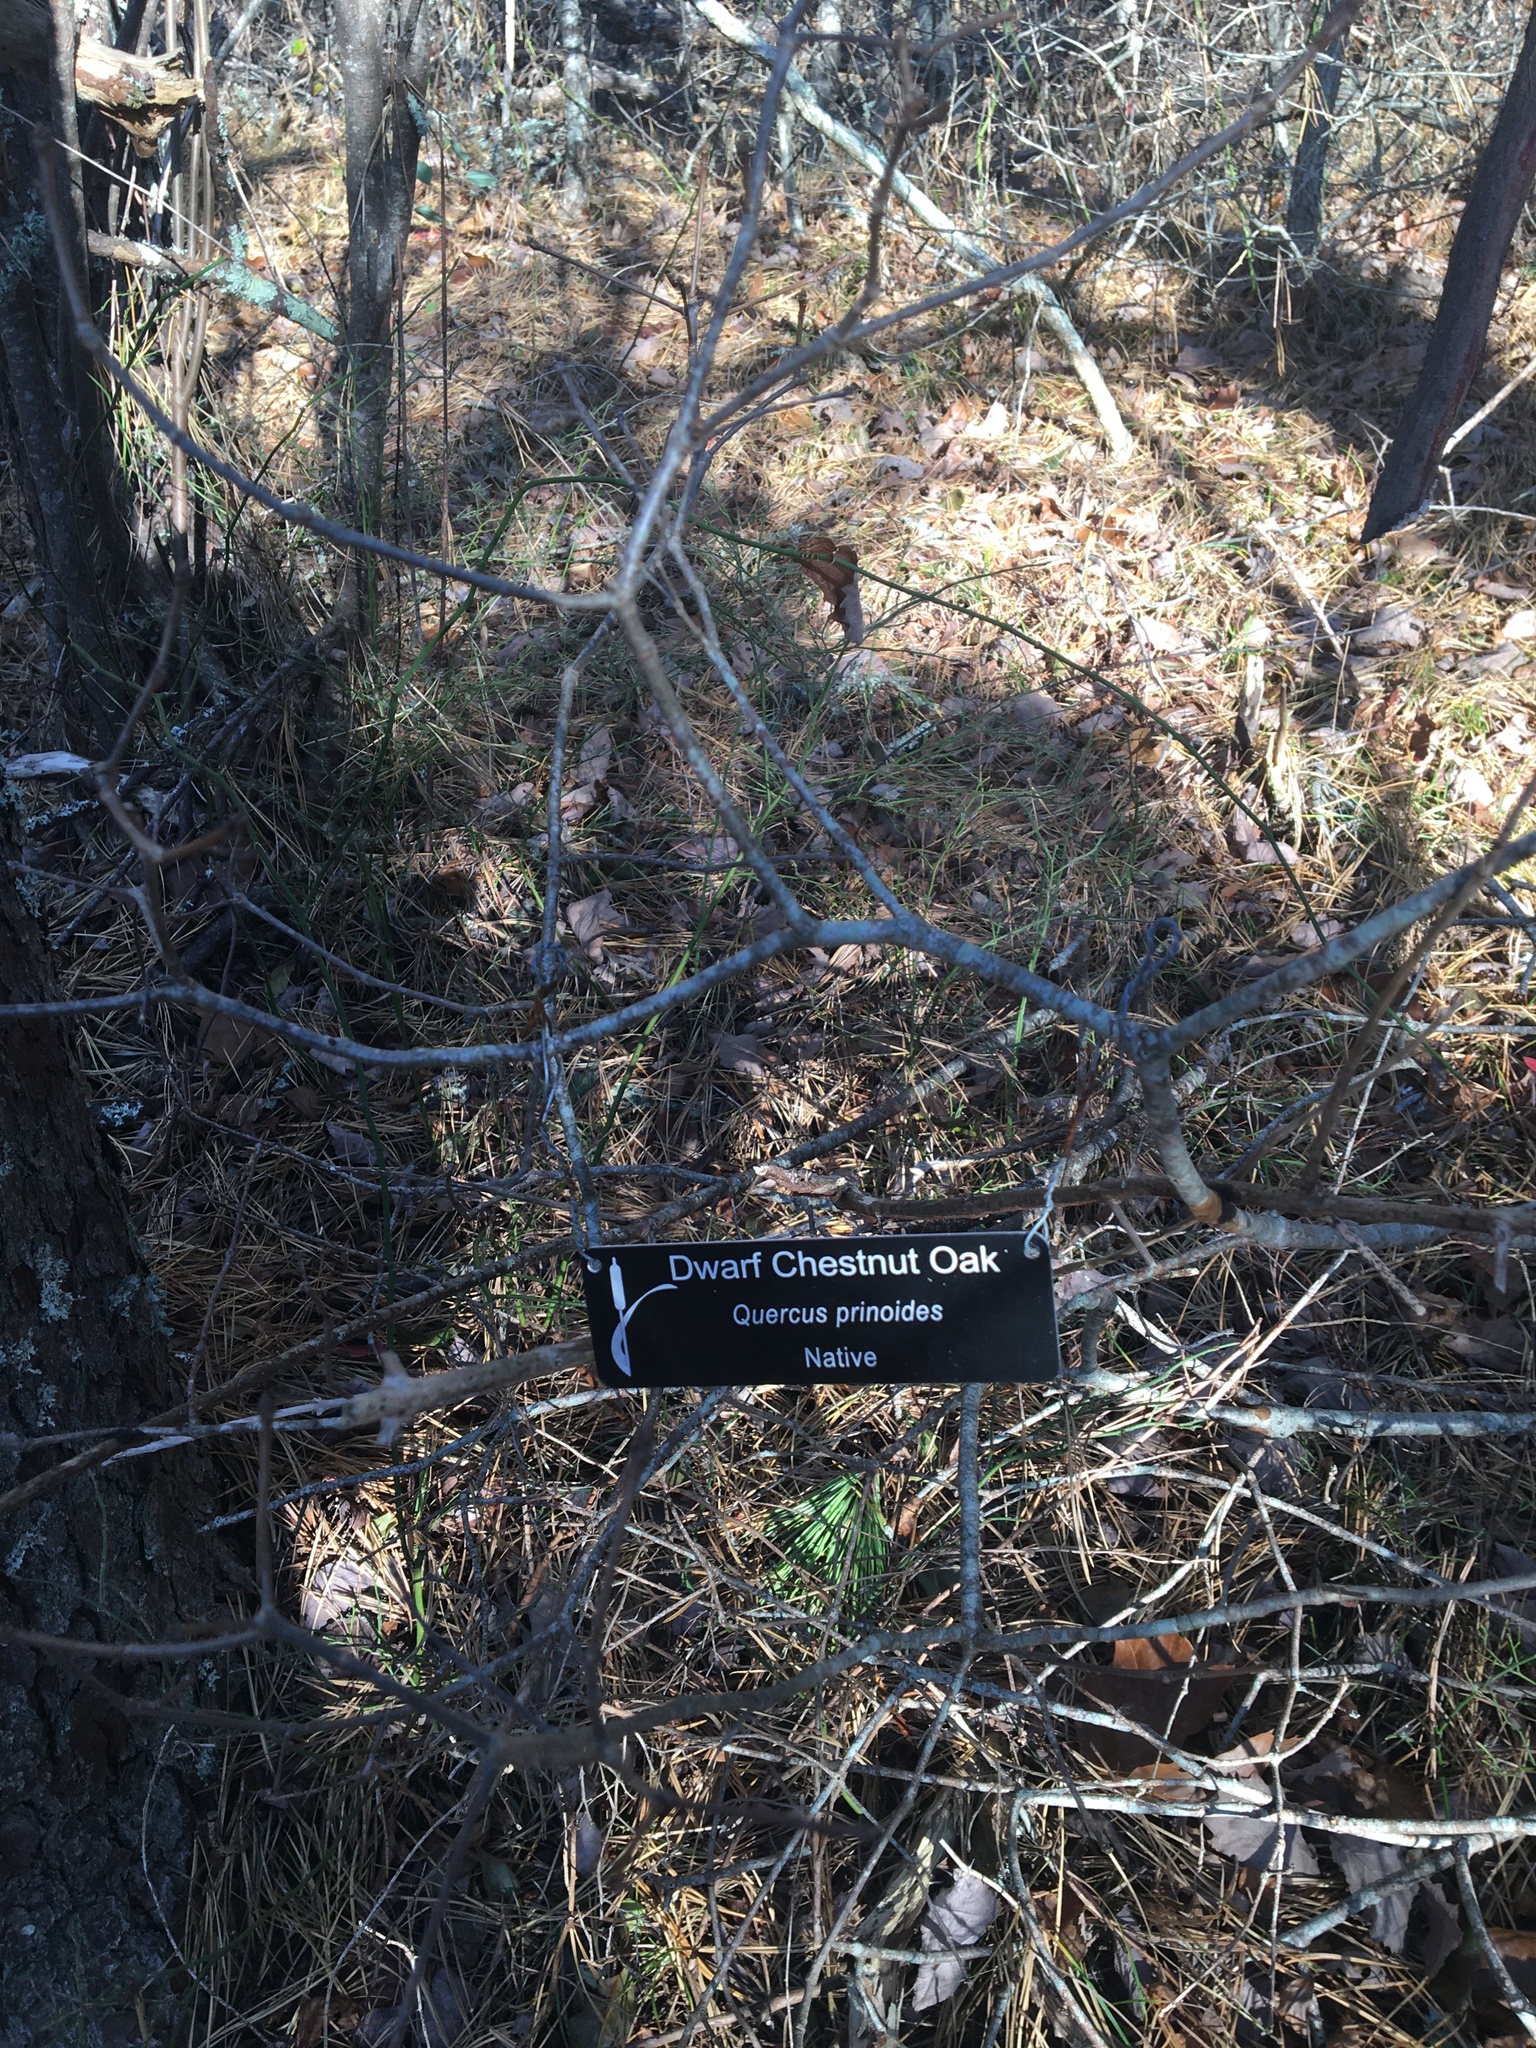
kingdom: Plantae
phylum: Tracheophyta
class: Magnoliopsida
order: Fagales
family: Fagaceae
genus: Quercus
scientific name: Quercus prinoides
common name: Dwarf chinkapin oak
